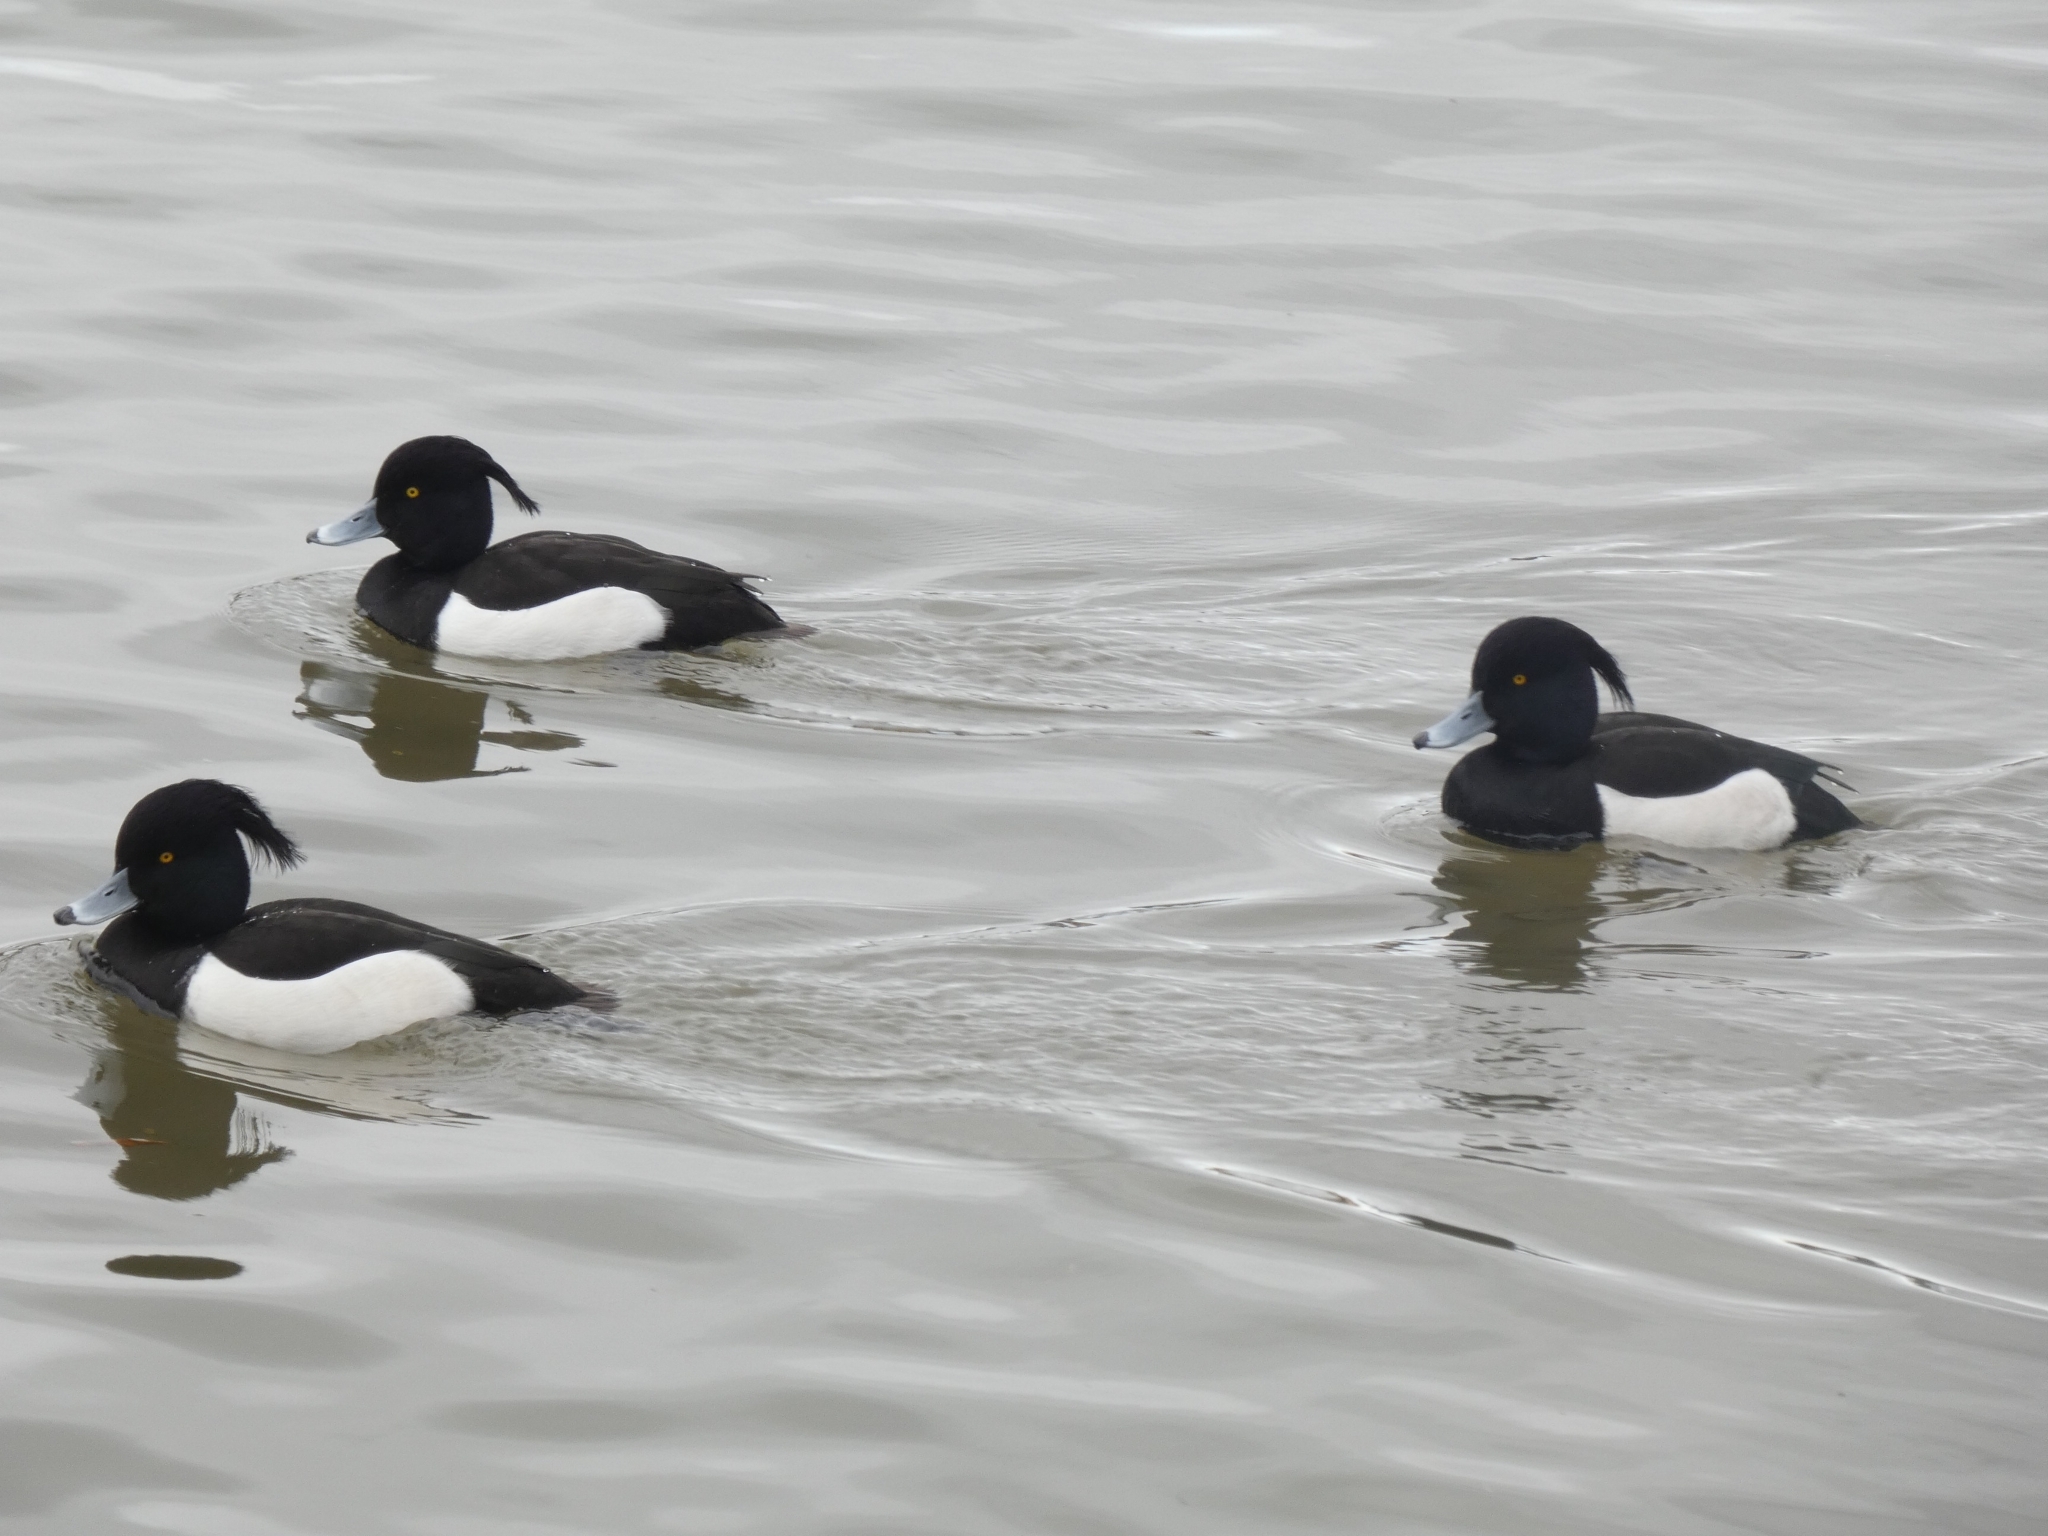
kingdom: Animalia
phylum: Chordata
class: Aves
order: Anseriformes
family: Anatidae
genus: Aythya
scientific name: Aythya fuligula
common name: Tufted duck
